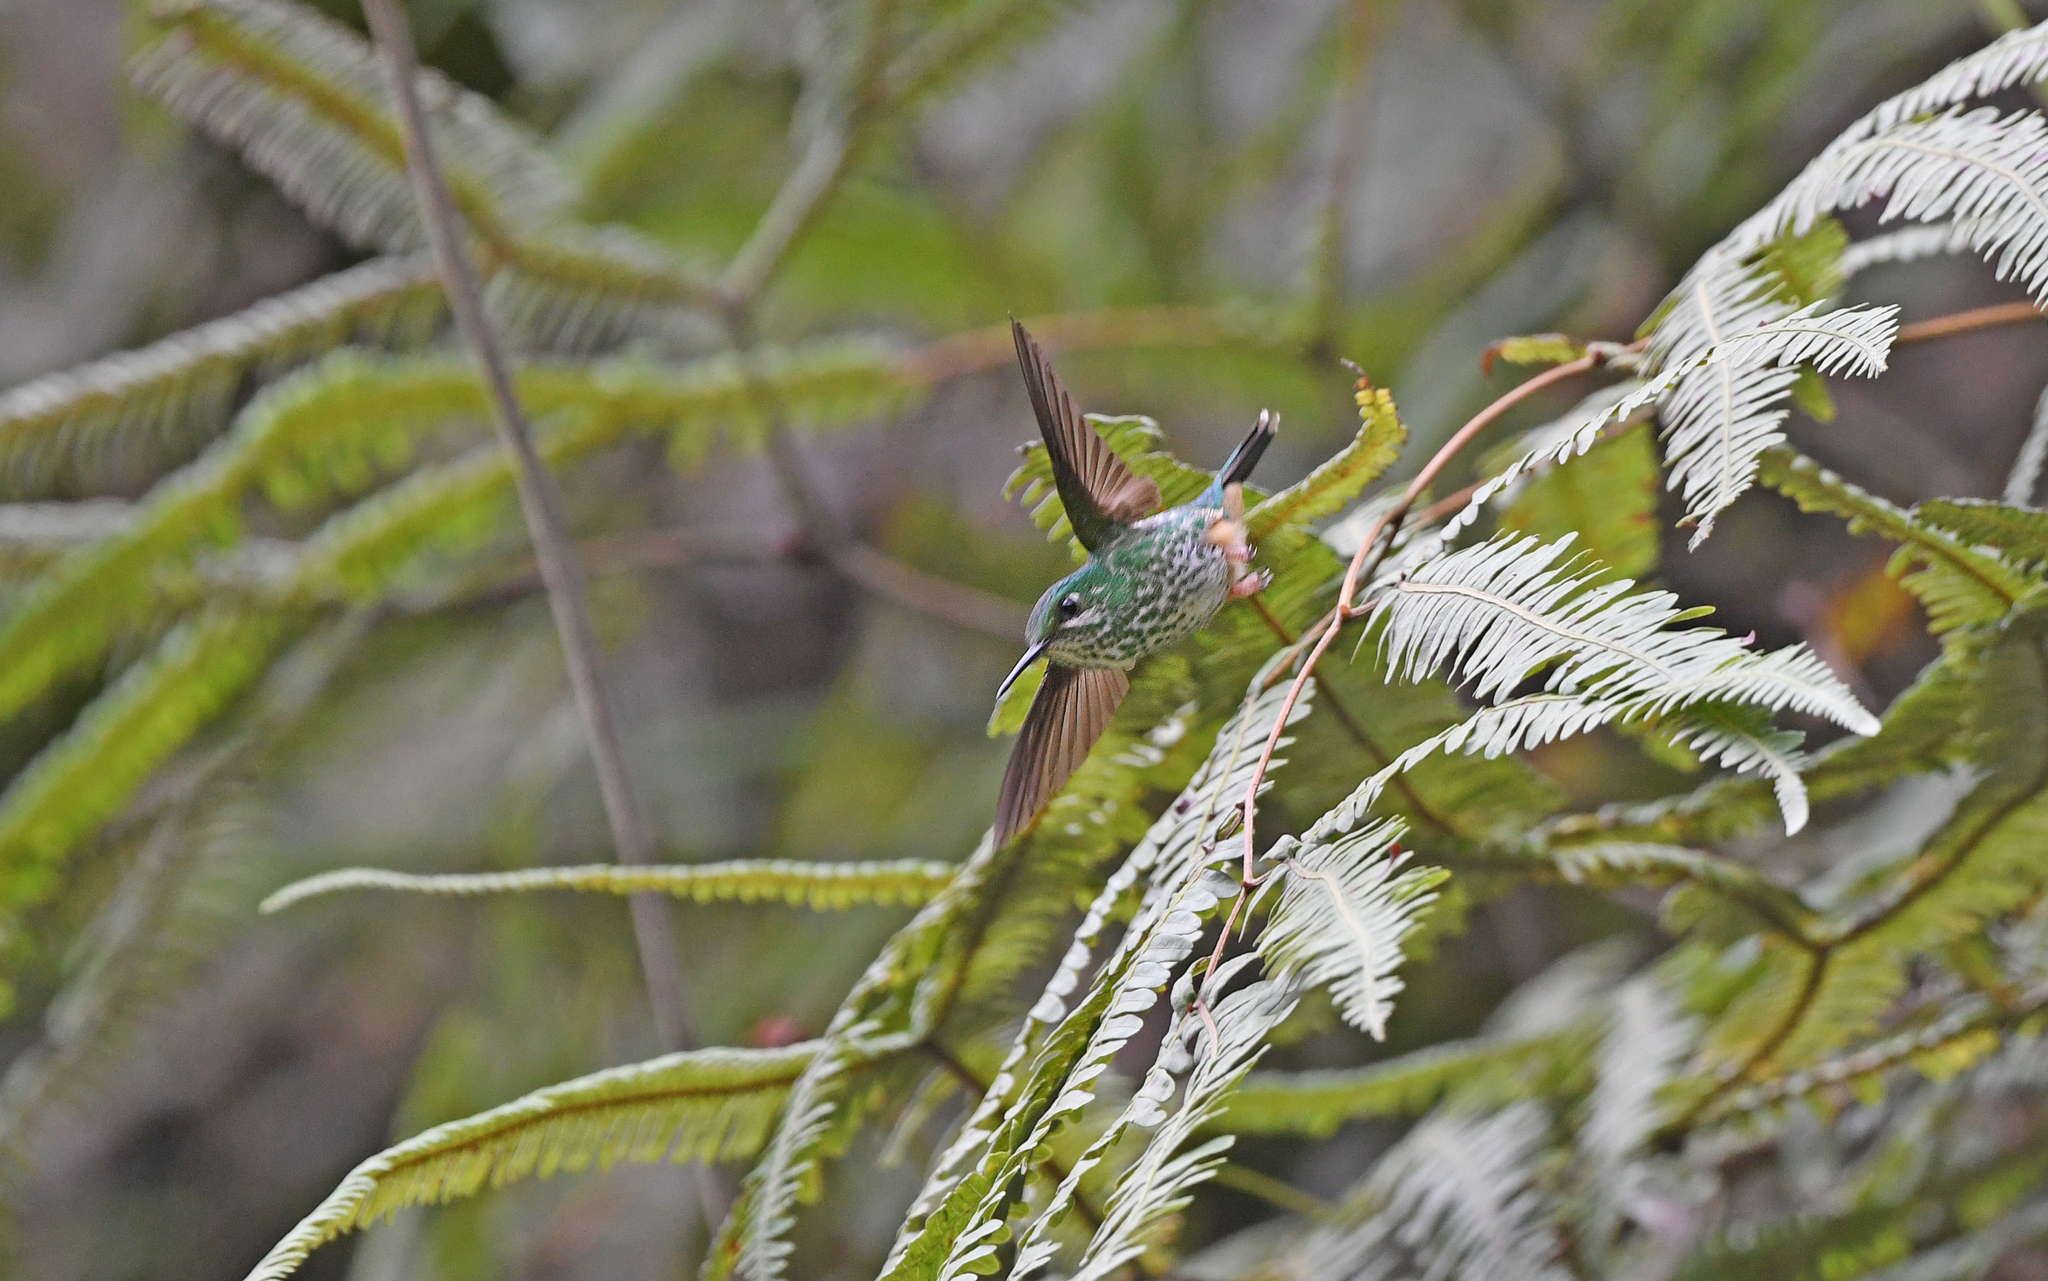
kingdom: Animalia
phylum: Chordata
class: Aves
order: Apodiformes
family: Trochilidae
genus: Ocreatus
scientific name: Ocreatus addae
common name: Rufous-booted racket-tail
